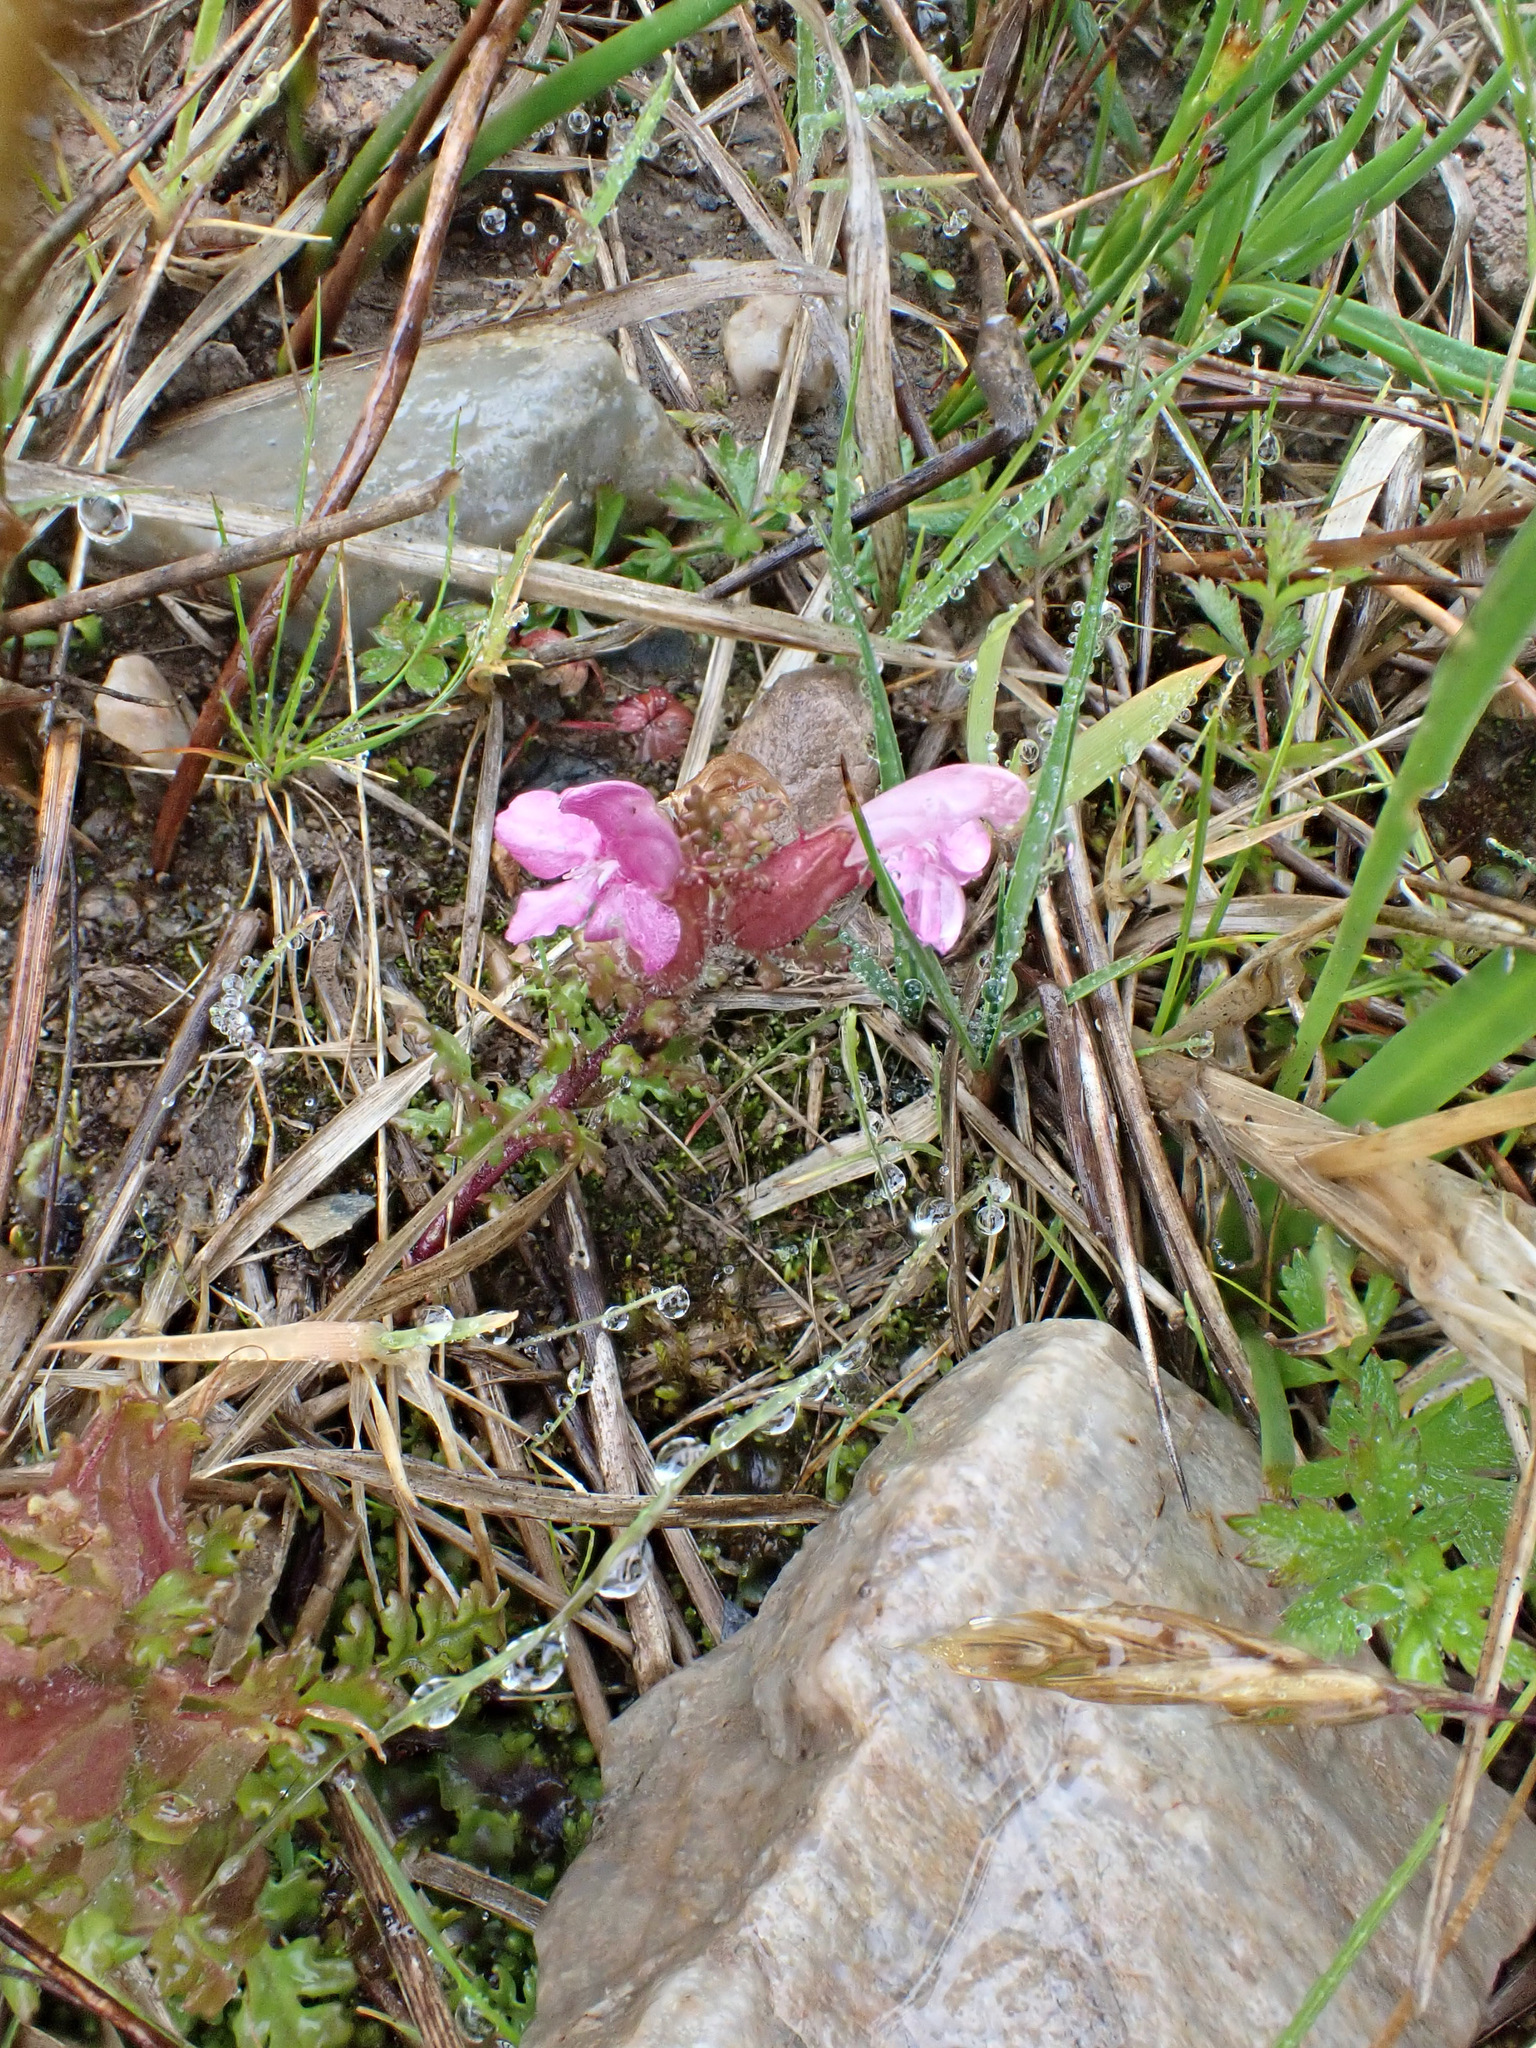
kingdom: Plantae
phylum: Tracheophyta
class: Magnoliopsida
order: Lamiales
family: Orobanchaceae
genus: Pedicularis
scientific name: Pedicularis sylvatica
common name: Lousewort
